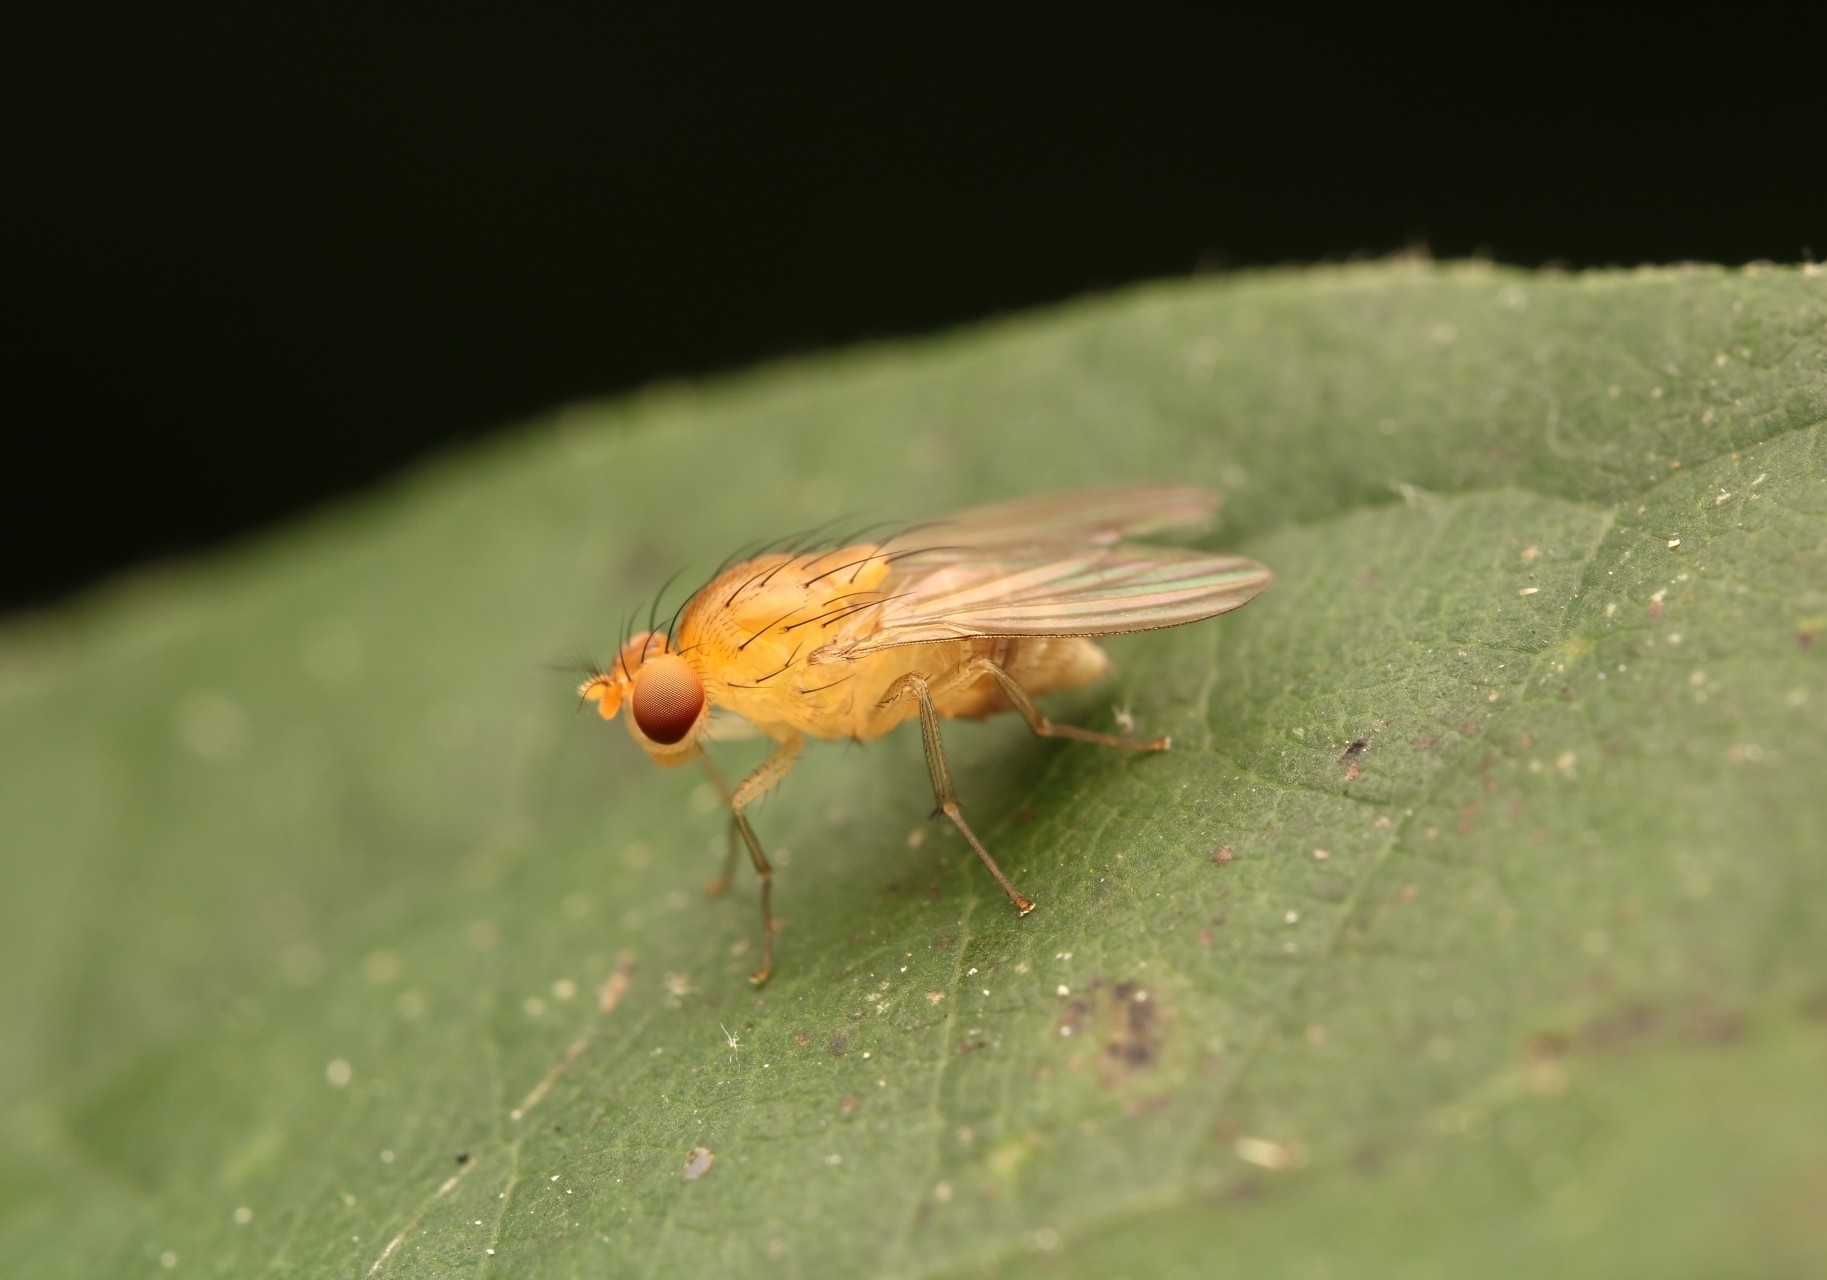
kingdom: Animalia
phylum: Arthropoda
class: Insecta
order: Diptera
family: Lauxaniidae
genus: Neogriphoneura
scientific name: Neogriphoneura sordida
